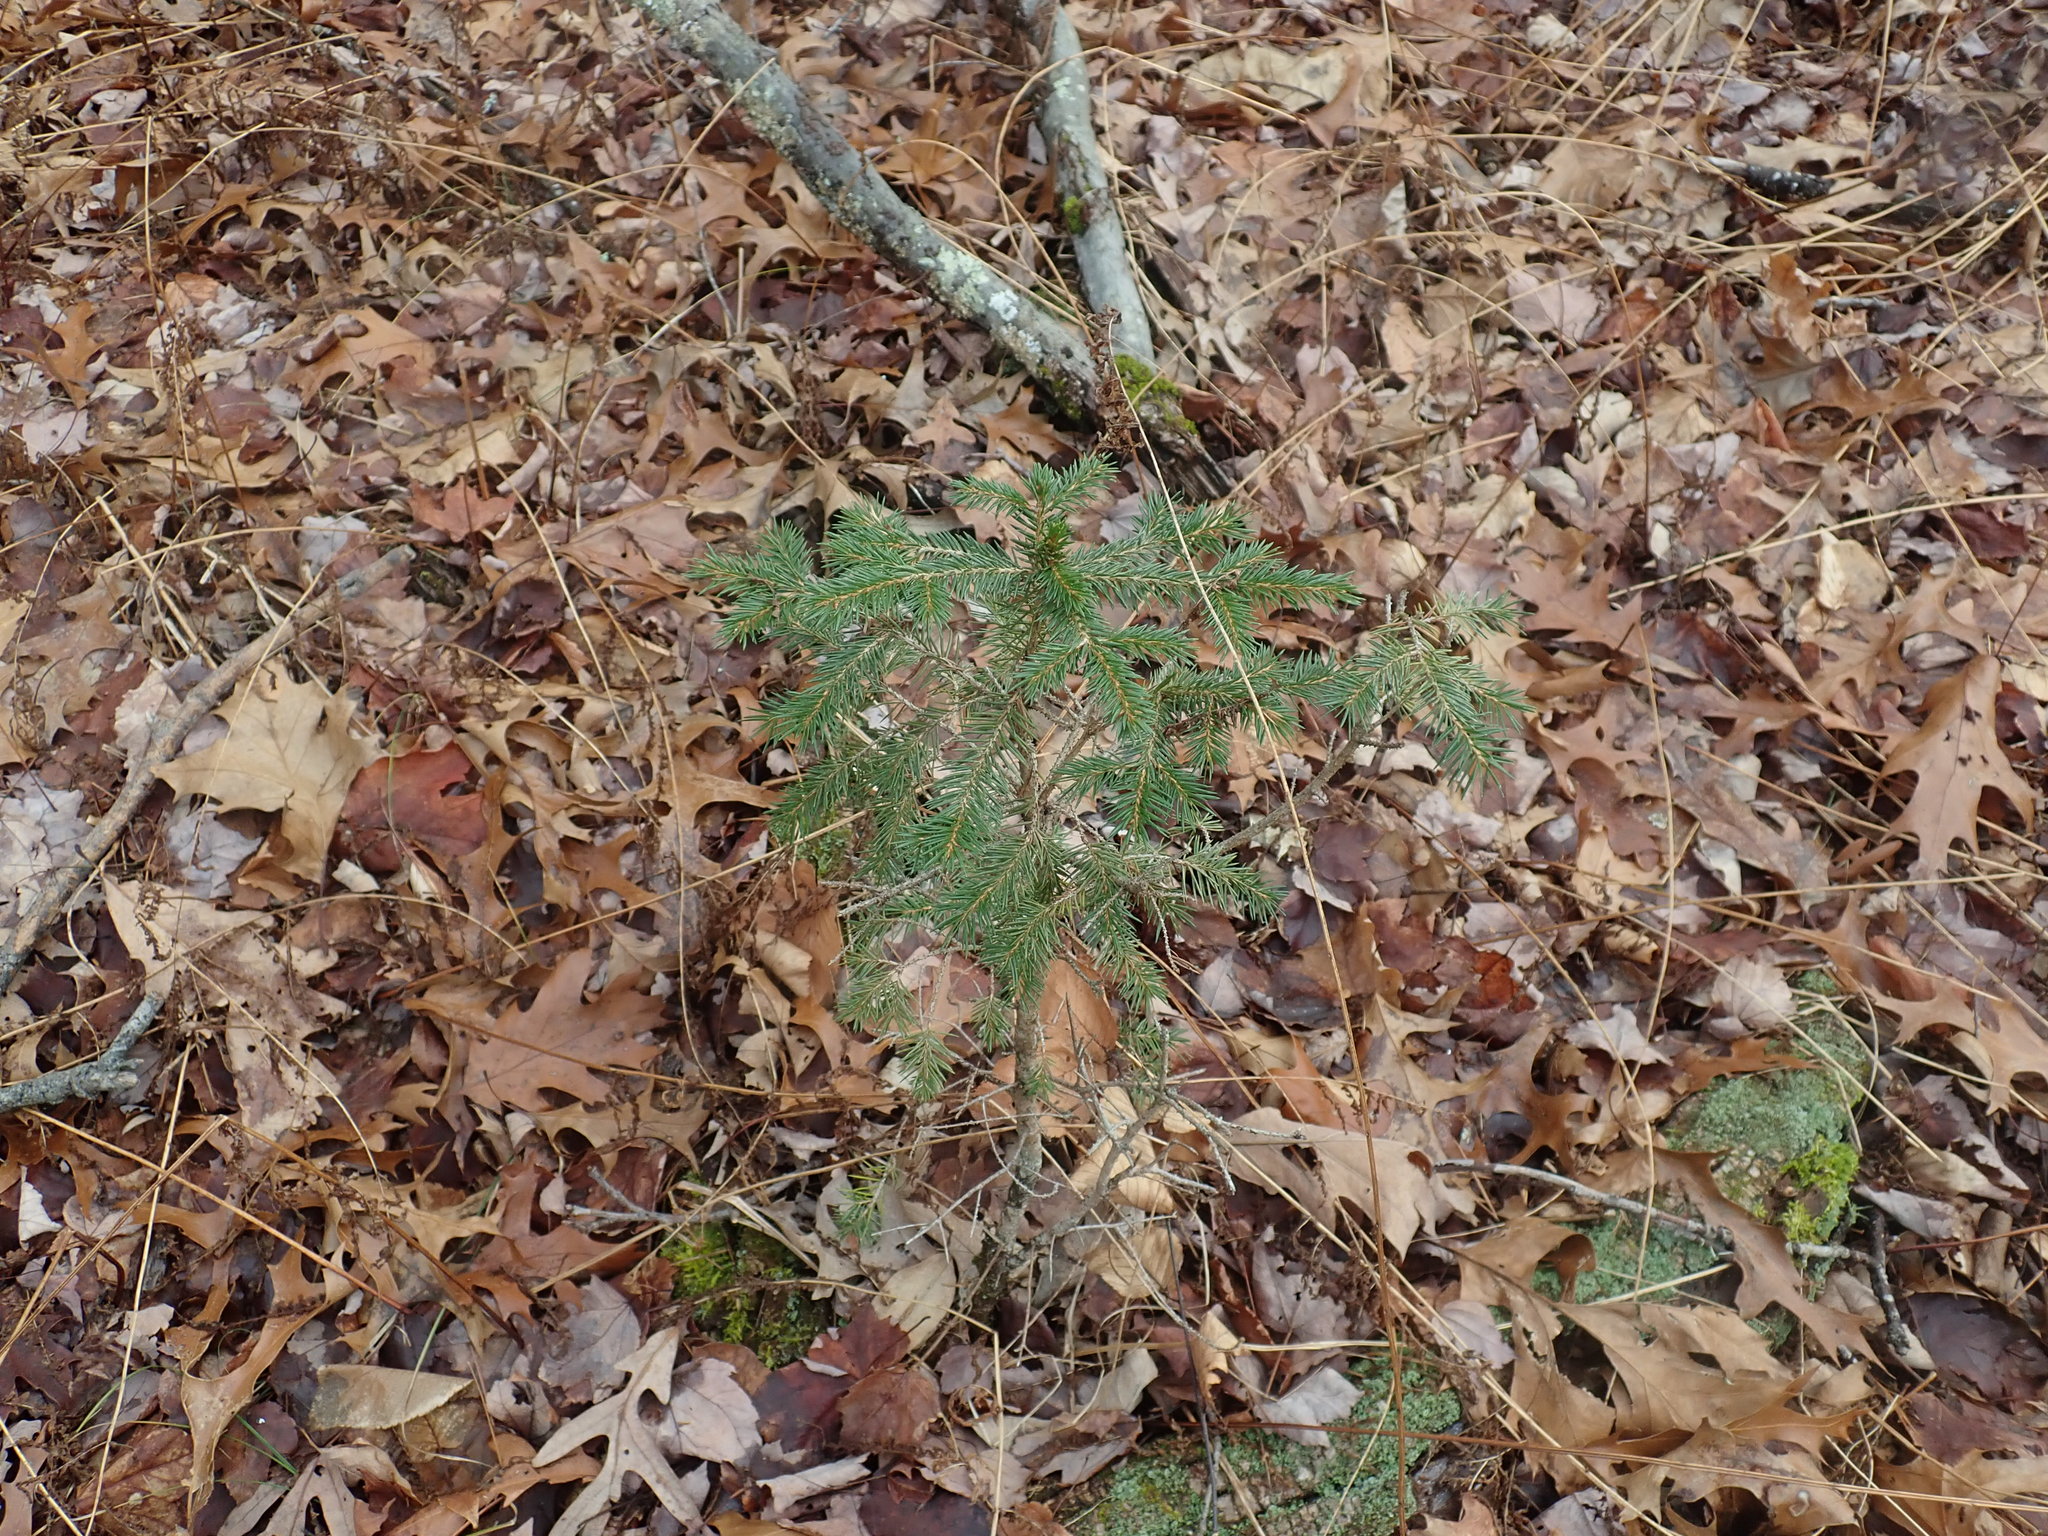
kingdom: Plantae
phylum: Tracheophyta
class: Pinopsida
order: Pinales
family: Pinaceae
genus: Picea
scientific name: Picea abies
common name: Norway spruce
